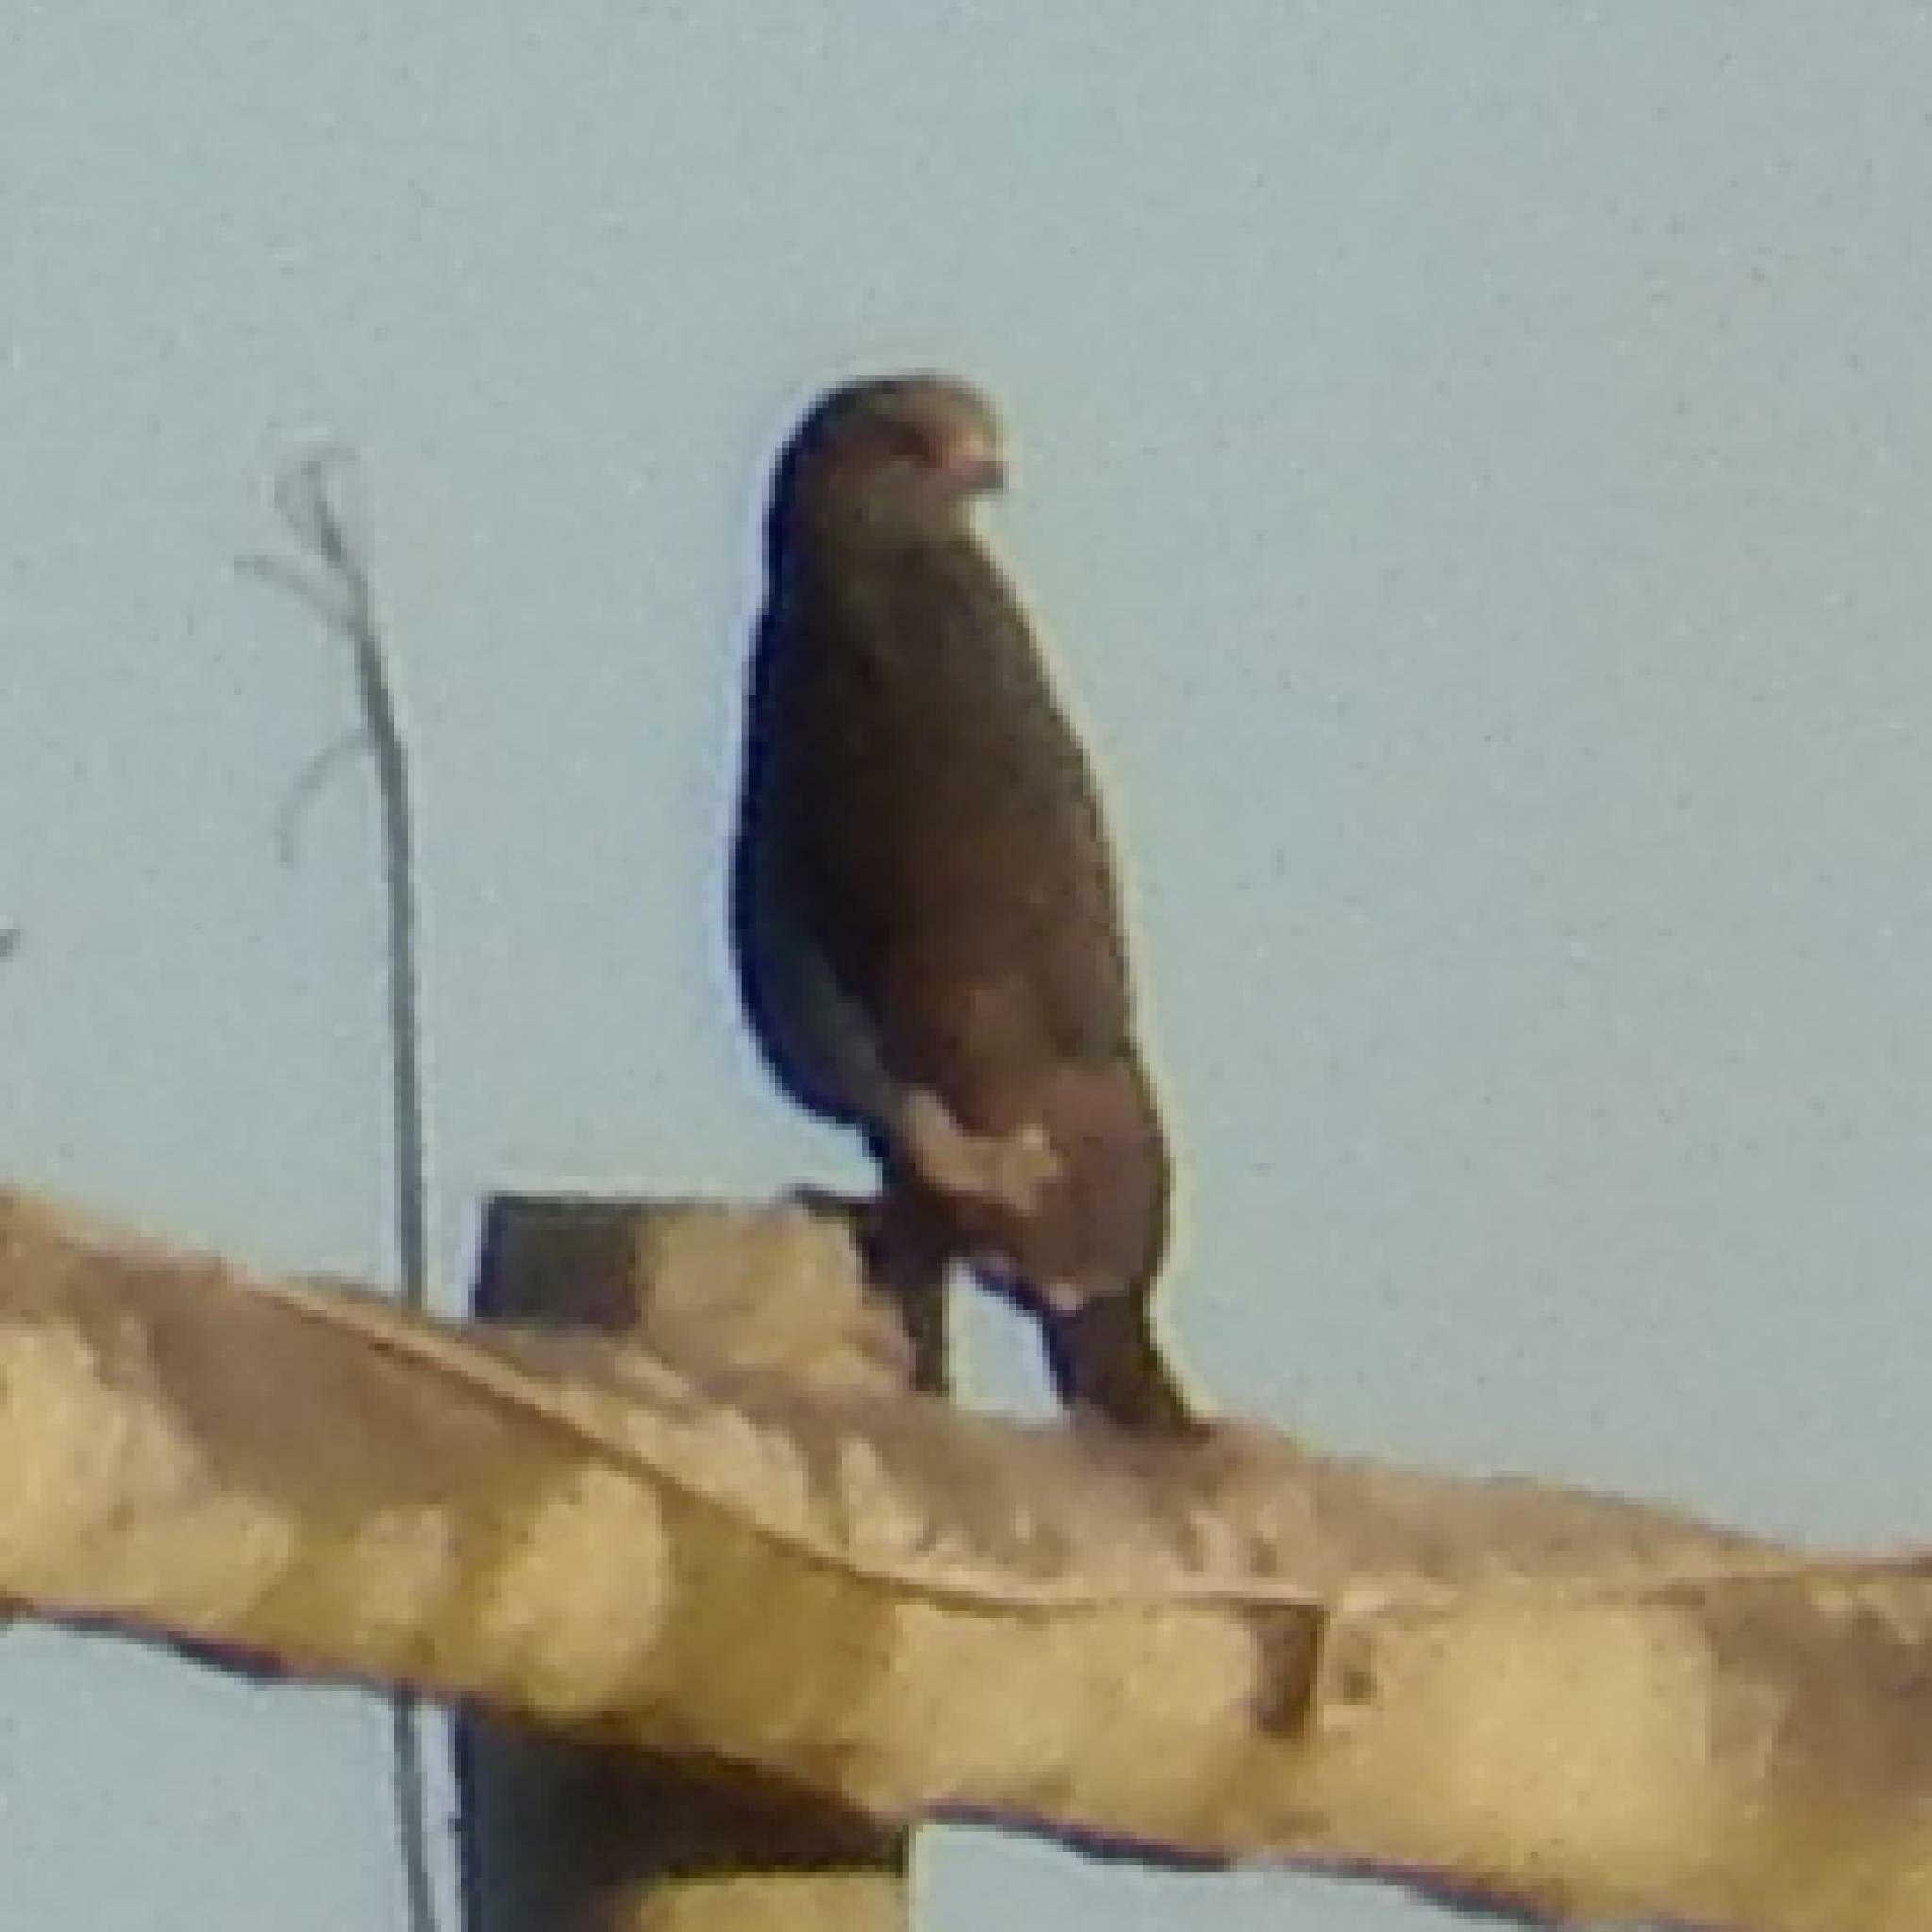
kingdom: Animalia
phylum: Chordata
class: Aves
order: Accipitriformes
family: Accipitridae
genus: Buteo
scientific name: Buteo rufofuscus
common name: Jackal buzzard
